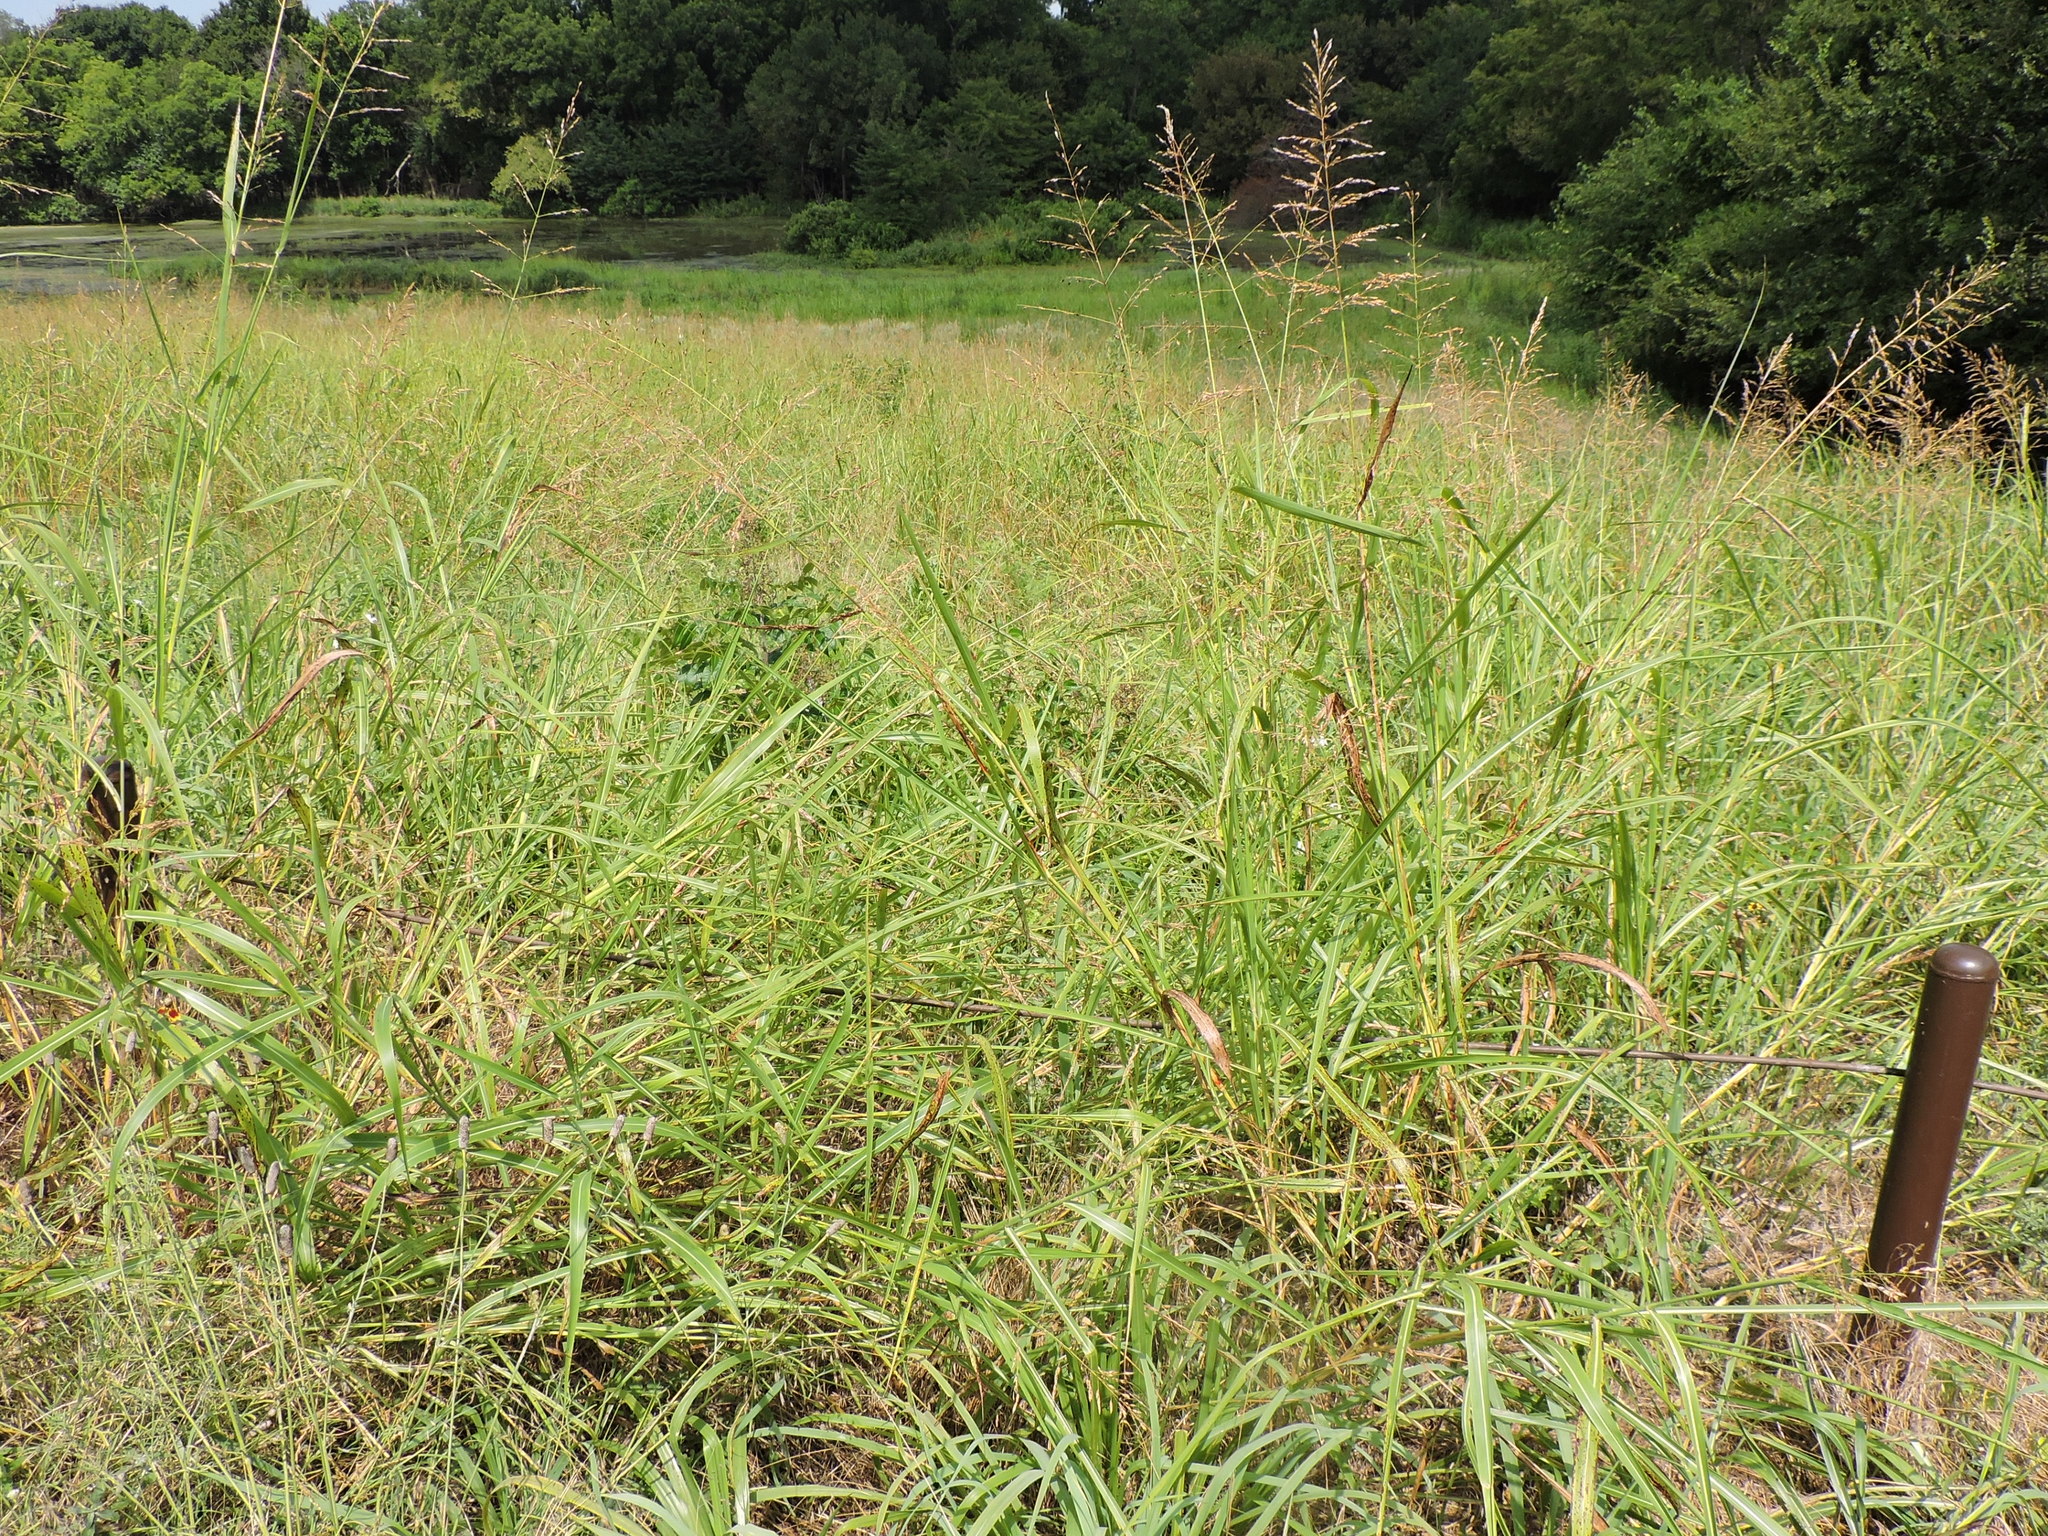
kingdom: Plantae
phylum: Tracheophyta
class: Liliopsida
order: Poales
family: Poaceae
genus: Sorghum
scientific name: Sorghum halepense
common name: Johnson-grass
